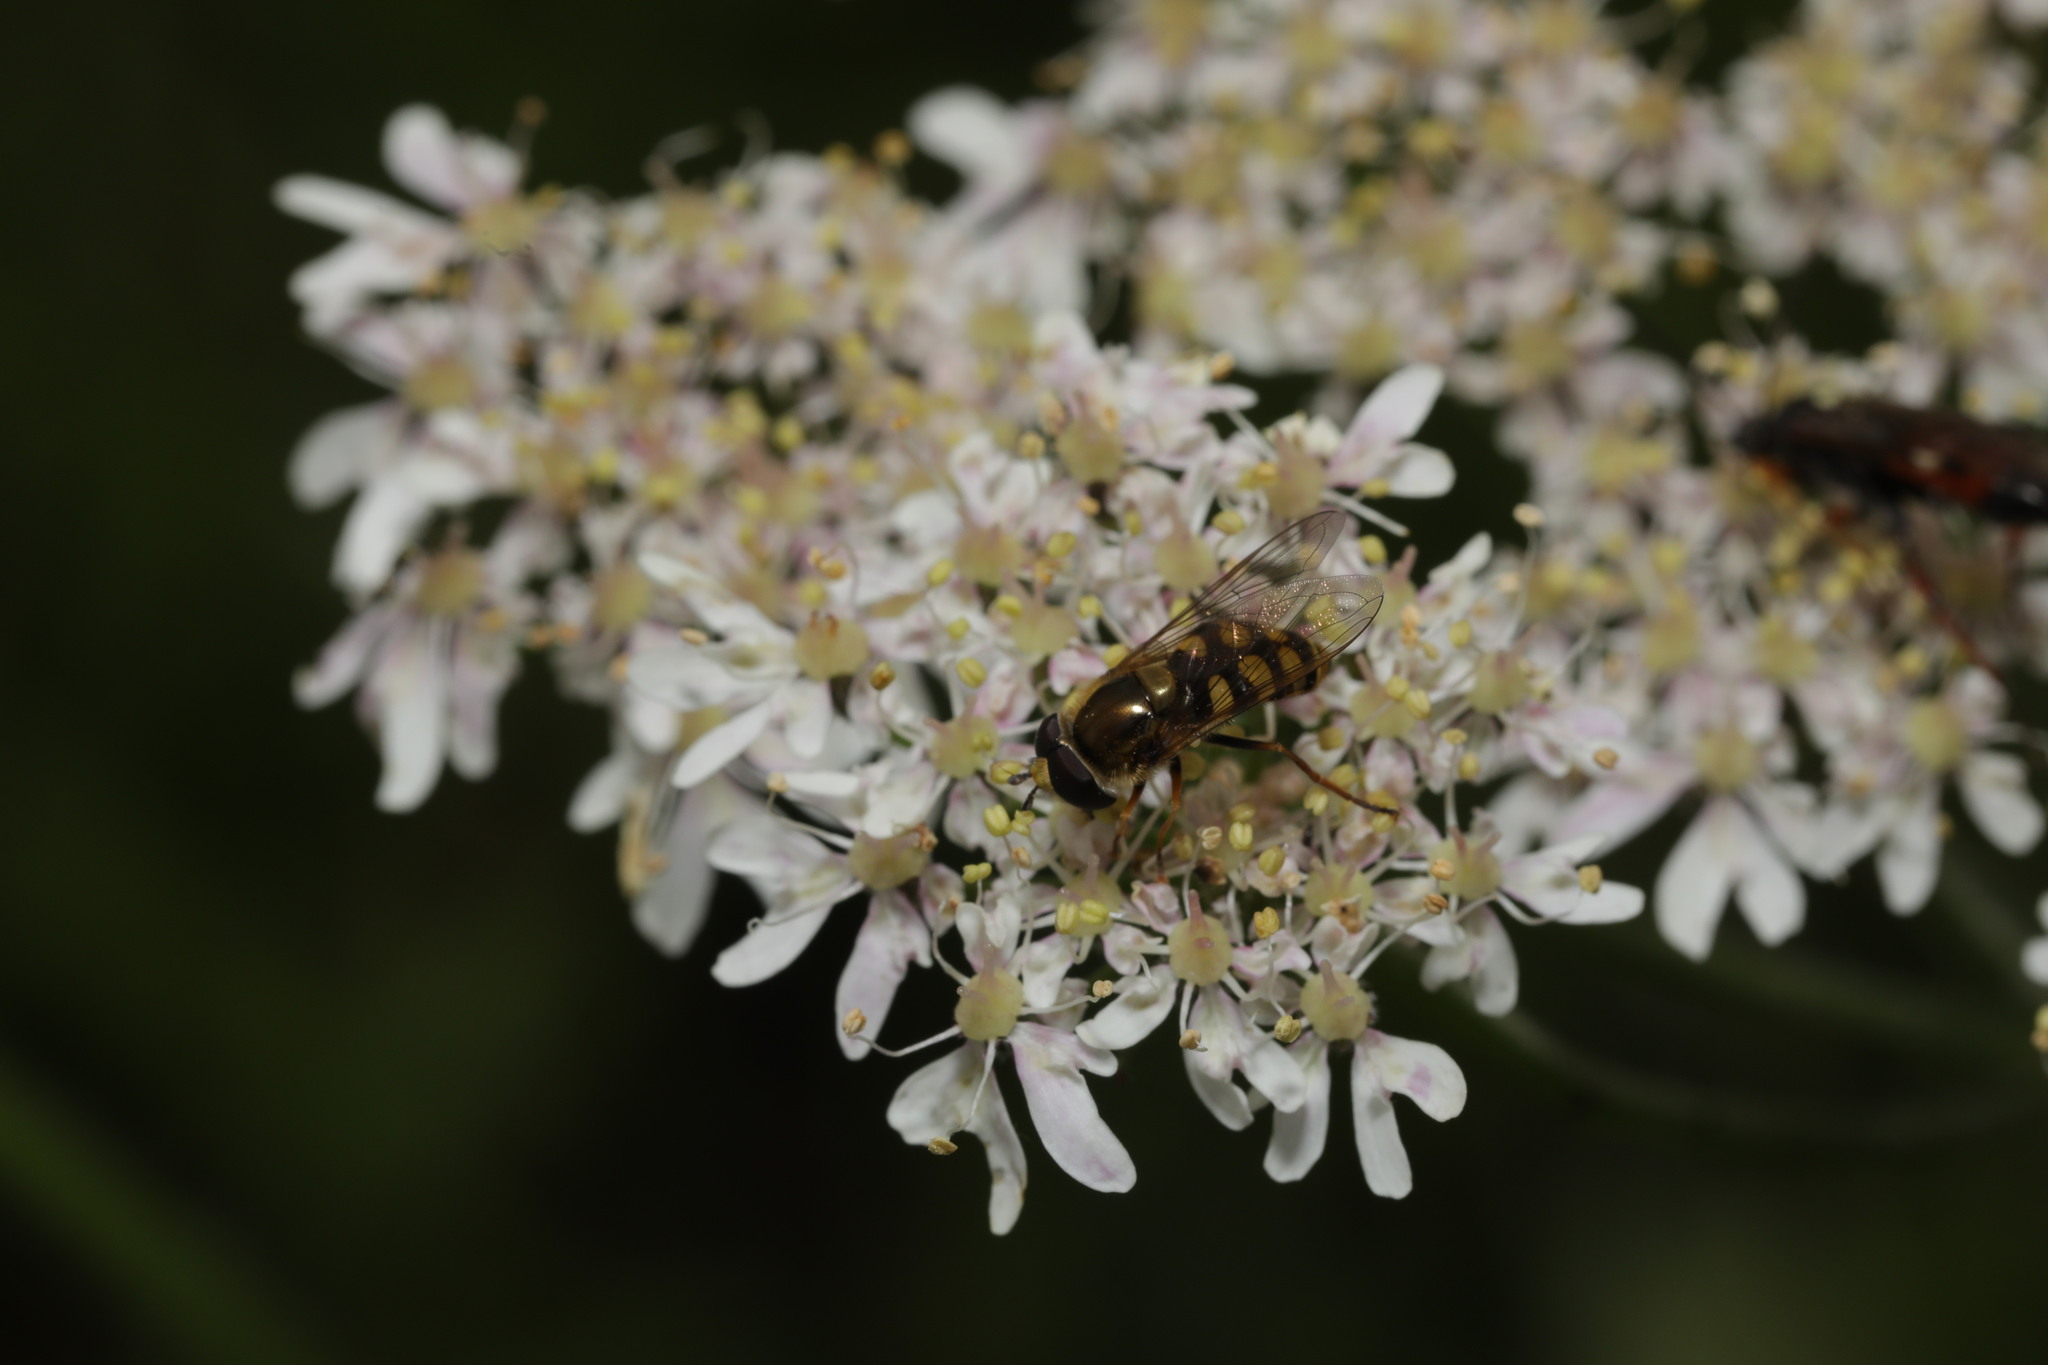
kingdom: Animalia
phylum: Arthropoda
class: Insecta
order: Diptera
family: Syrphidae
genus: Eupeodes
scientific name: Eupeodes corollae
